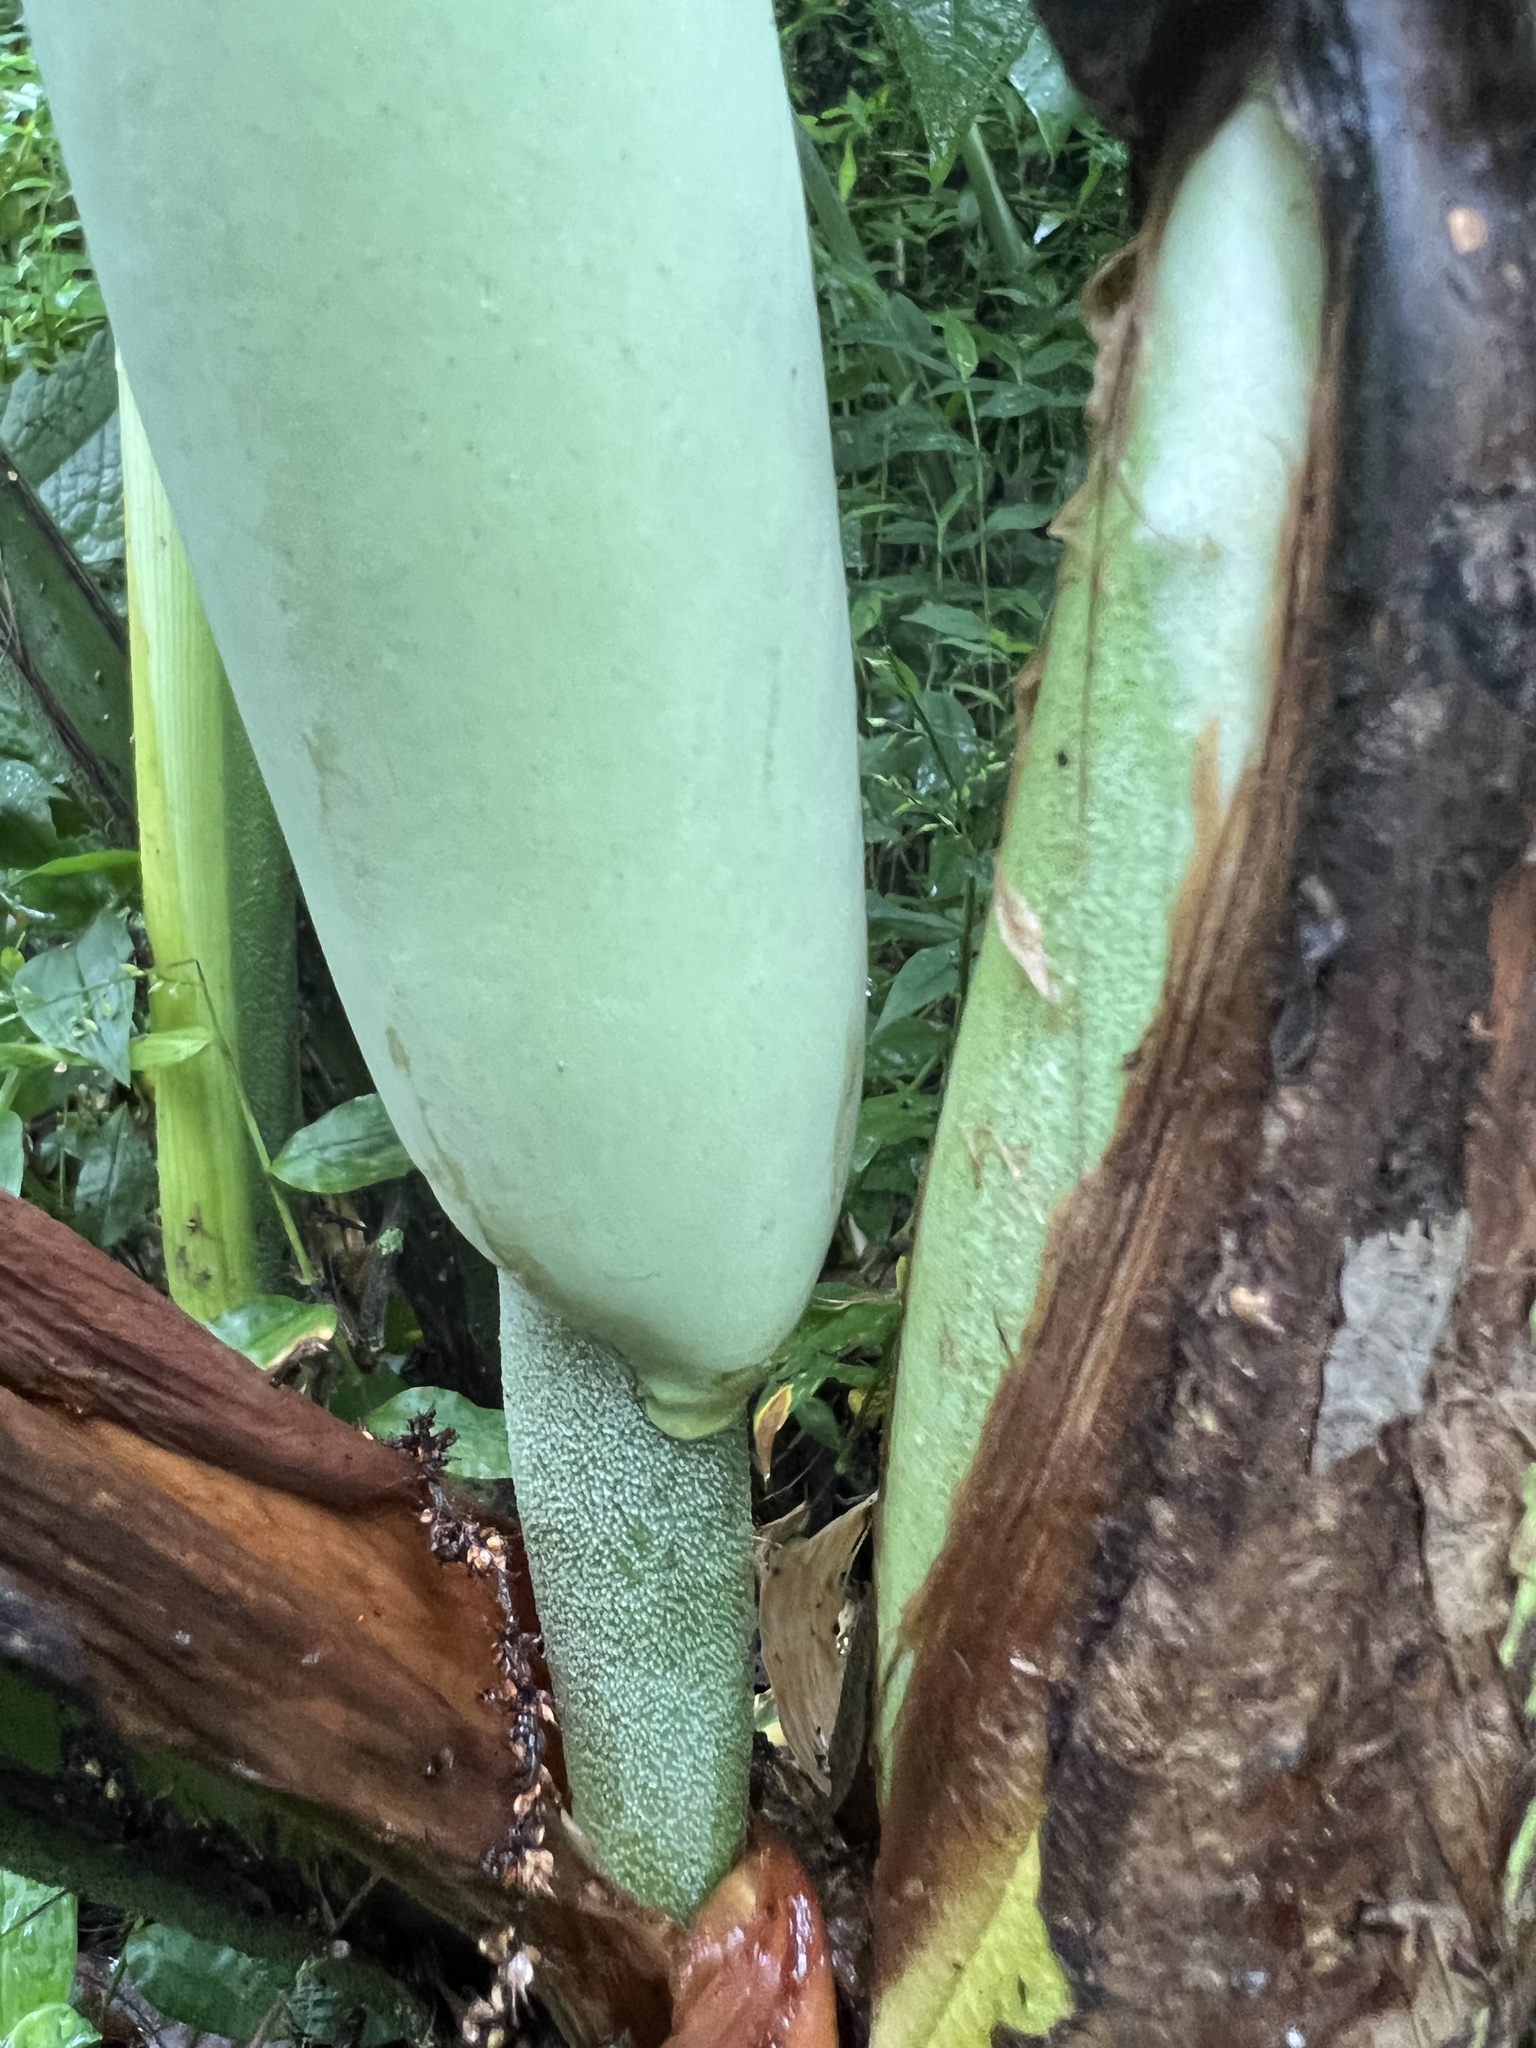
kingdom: Plantae
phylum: Tracheophyta
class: Liliopsida
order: Alismatales
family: Araceae
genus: Monstera
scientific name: Monstera deliciosa
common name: Cut-leaf-philodendron
